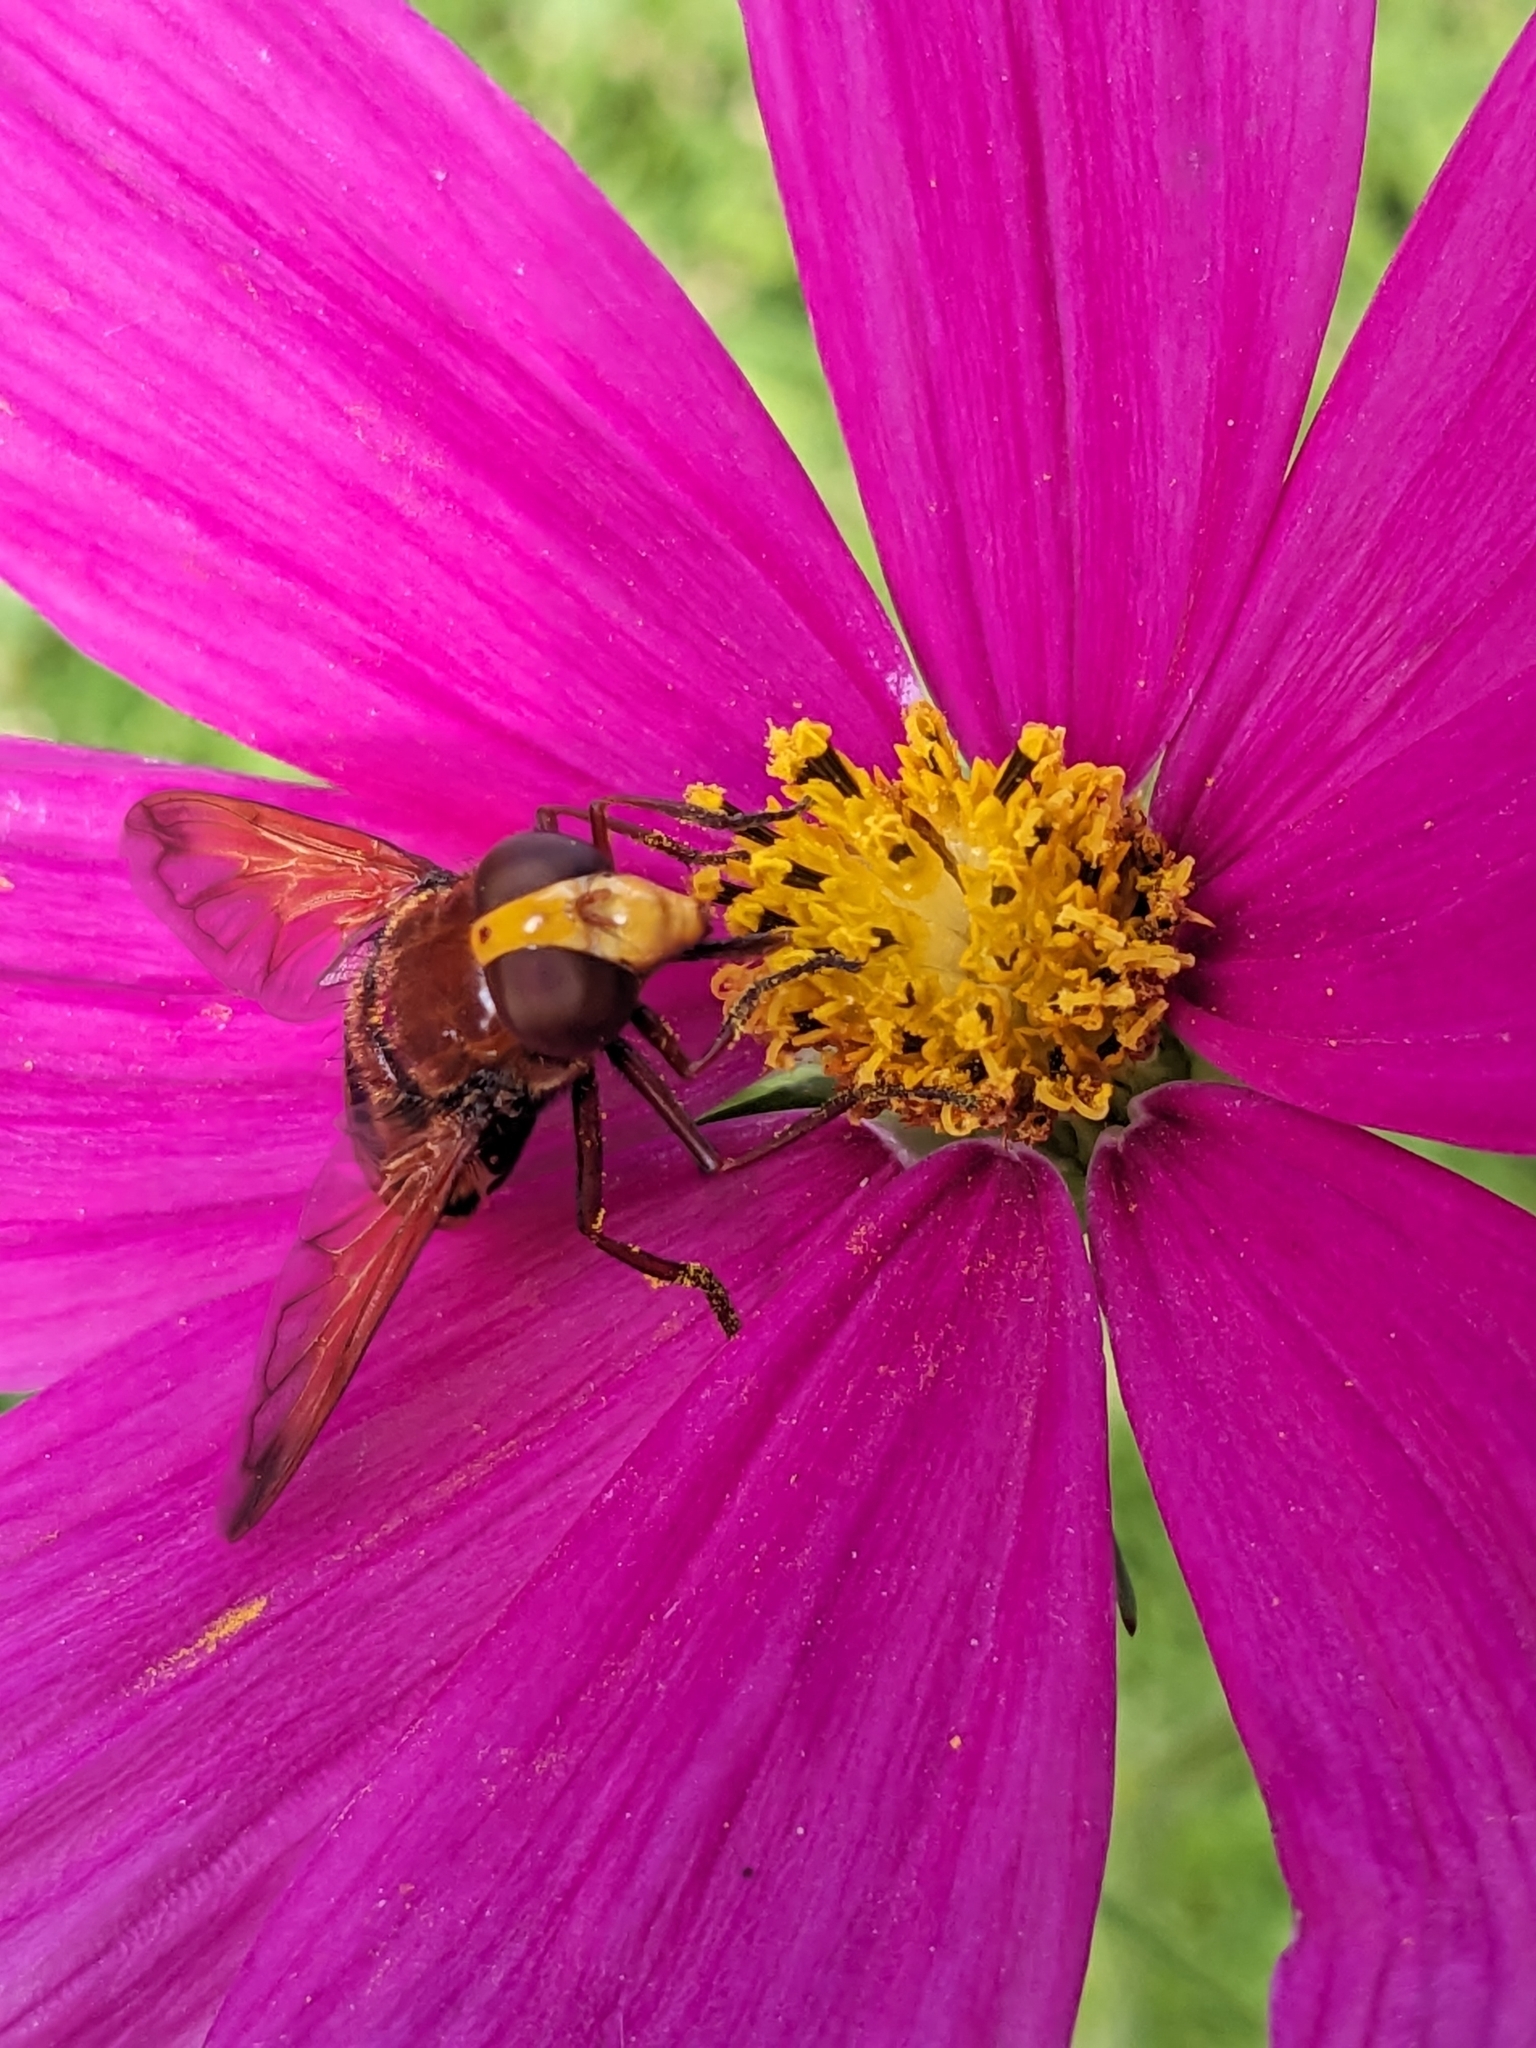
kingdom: Animalia
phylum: Arthropoda
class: Insecta
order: Diptera
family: Syrphidae
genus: Volucella
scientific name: Volucella zonaria
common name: Hornet hoverfly
